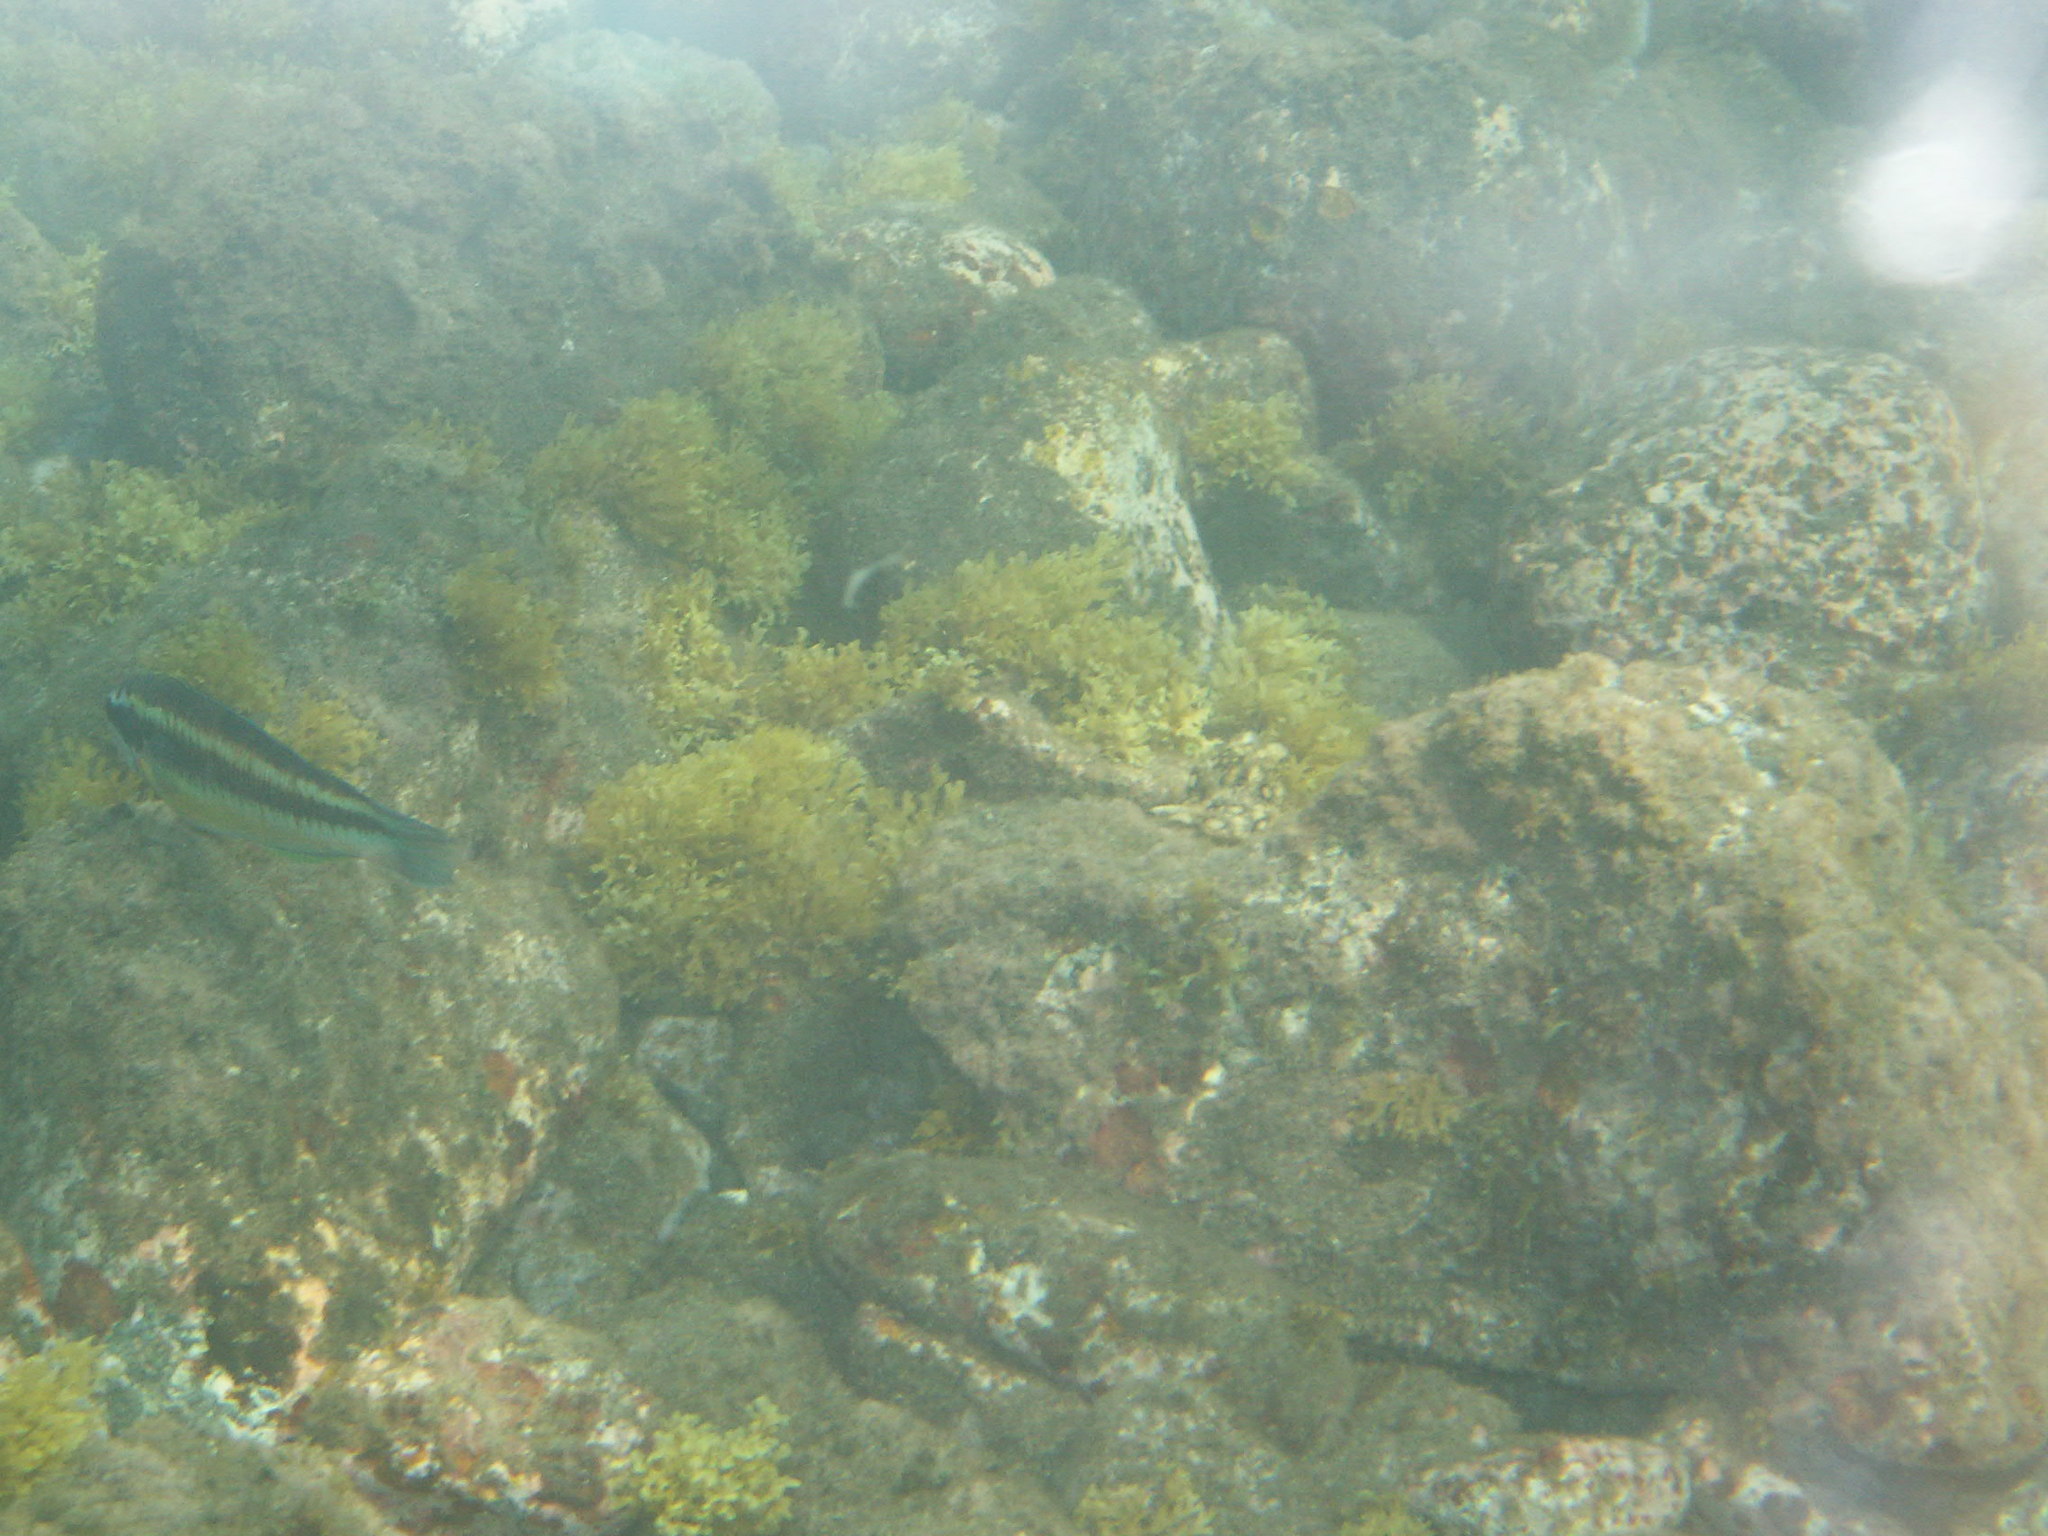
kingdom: Animalia
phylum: Chordata
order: Perciformes
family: Labridae
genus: Thalassoma
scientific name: Thalassoma pavo
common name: Ornate wrasse
